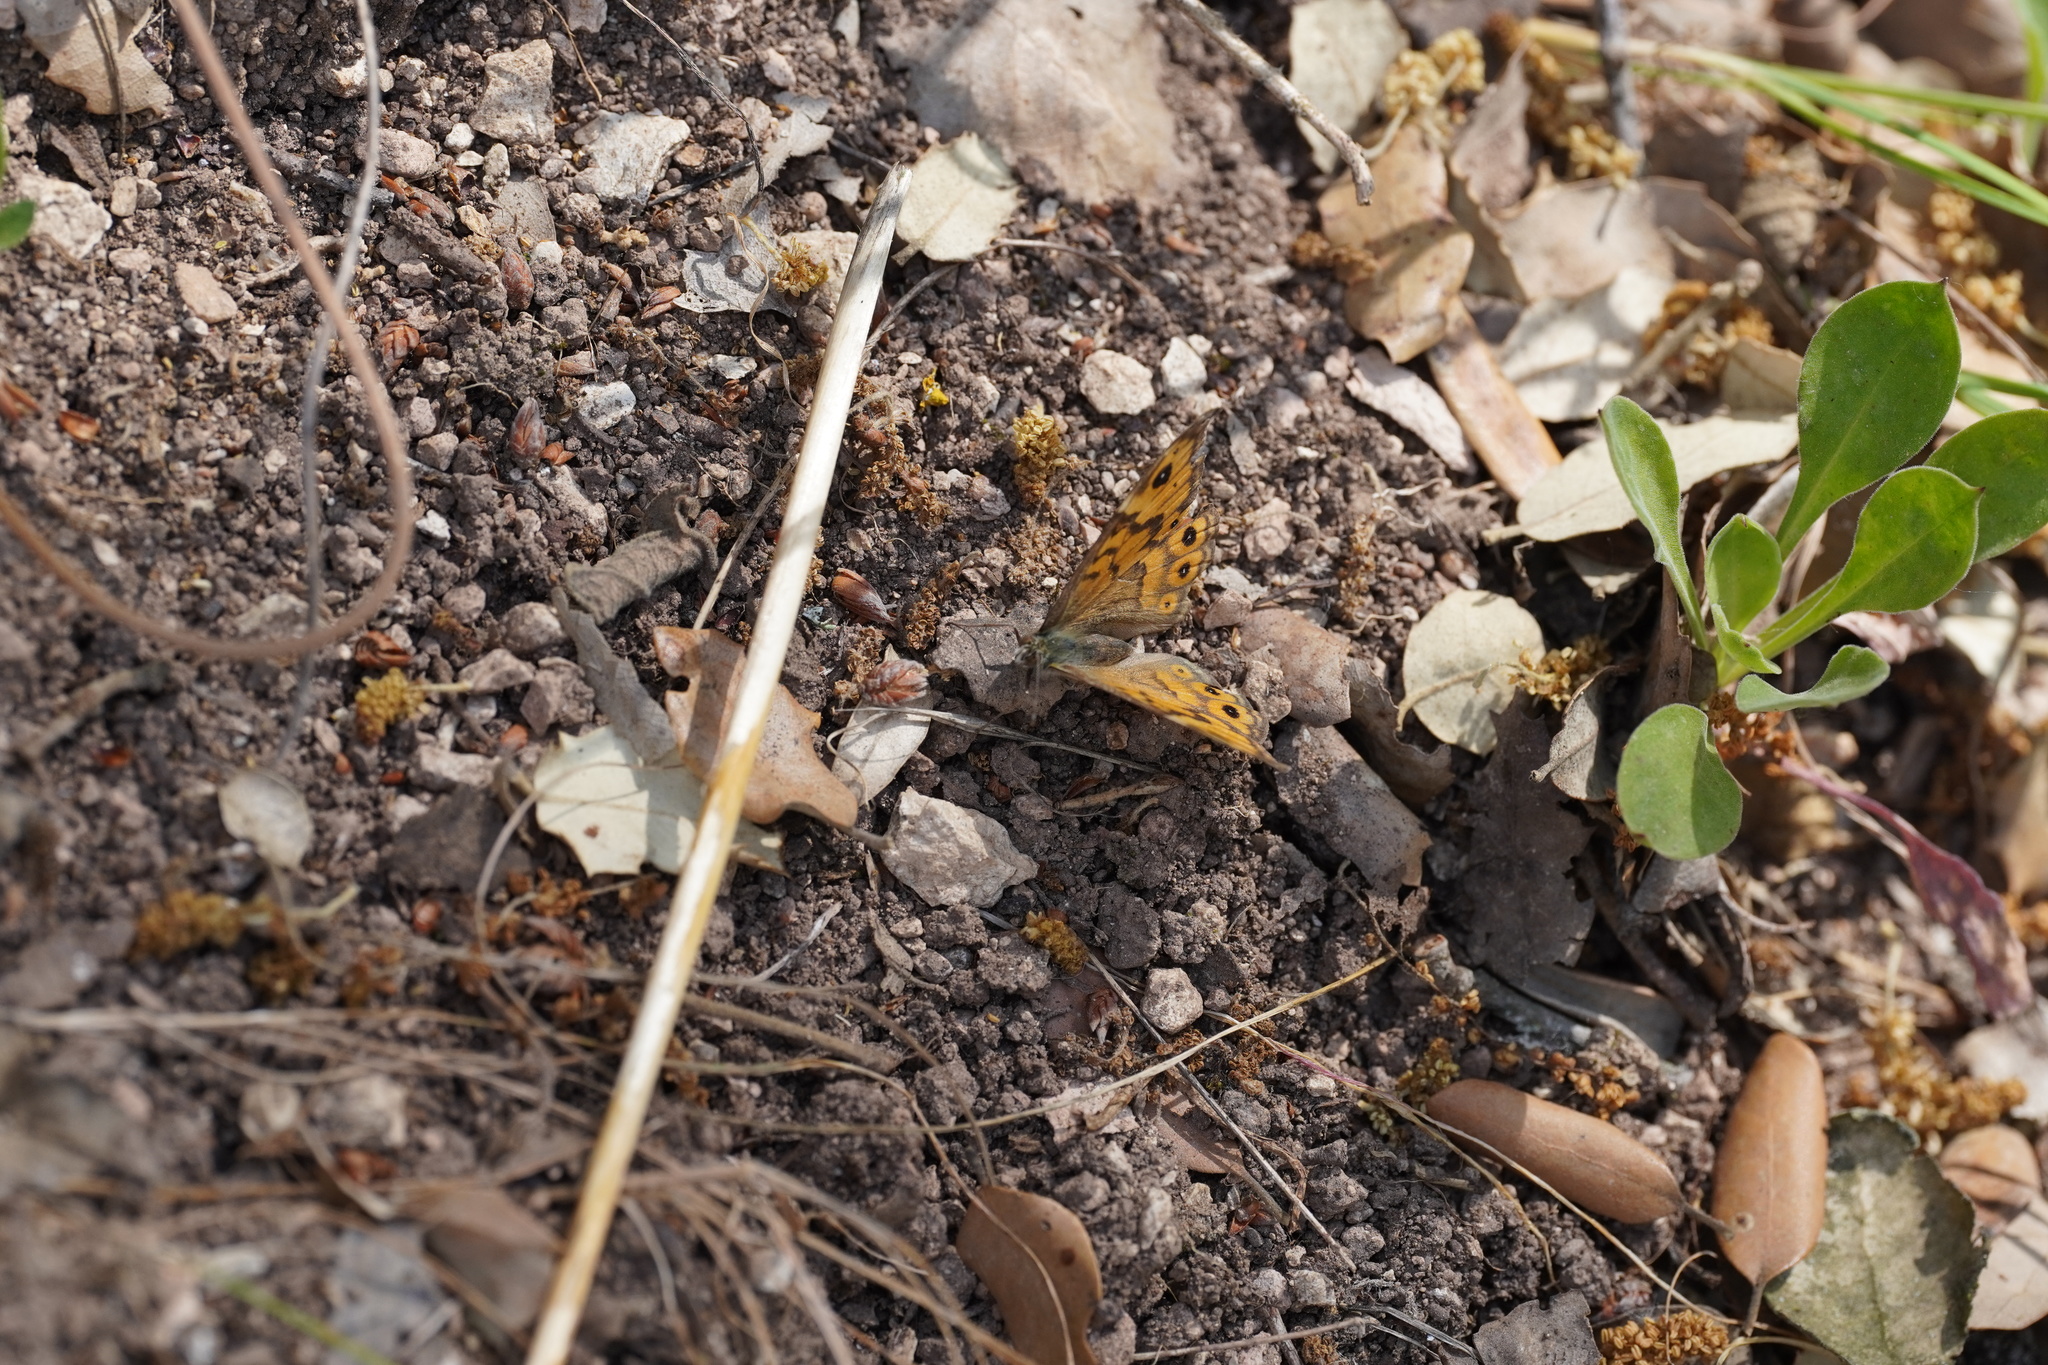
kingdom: Animalia
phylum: Arthropoda
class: Insecta
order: Lepidoptera
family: Nymphalidae
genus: Pararge
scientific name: Pararge Lasiommata megera
